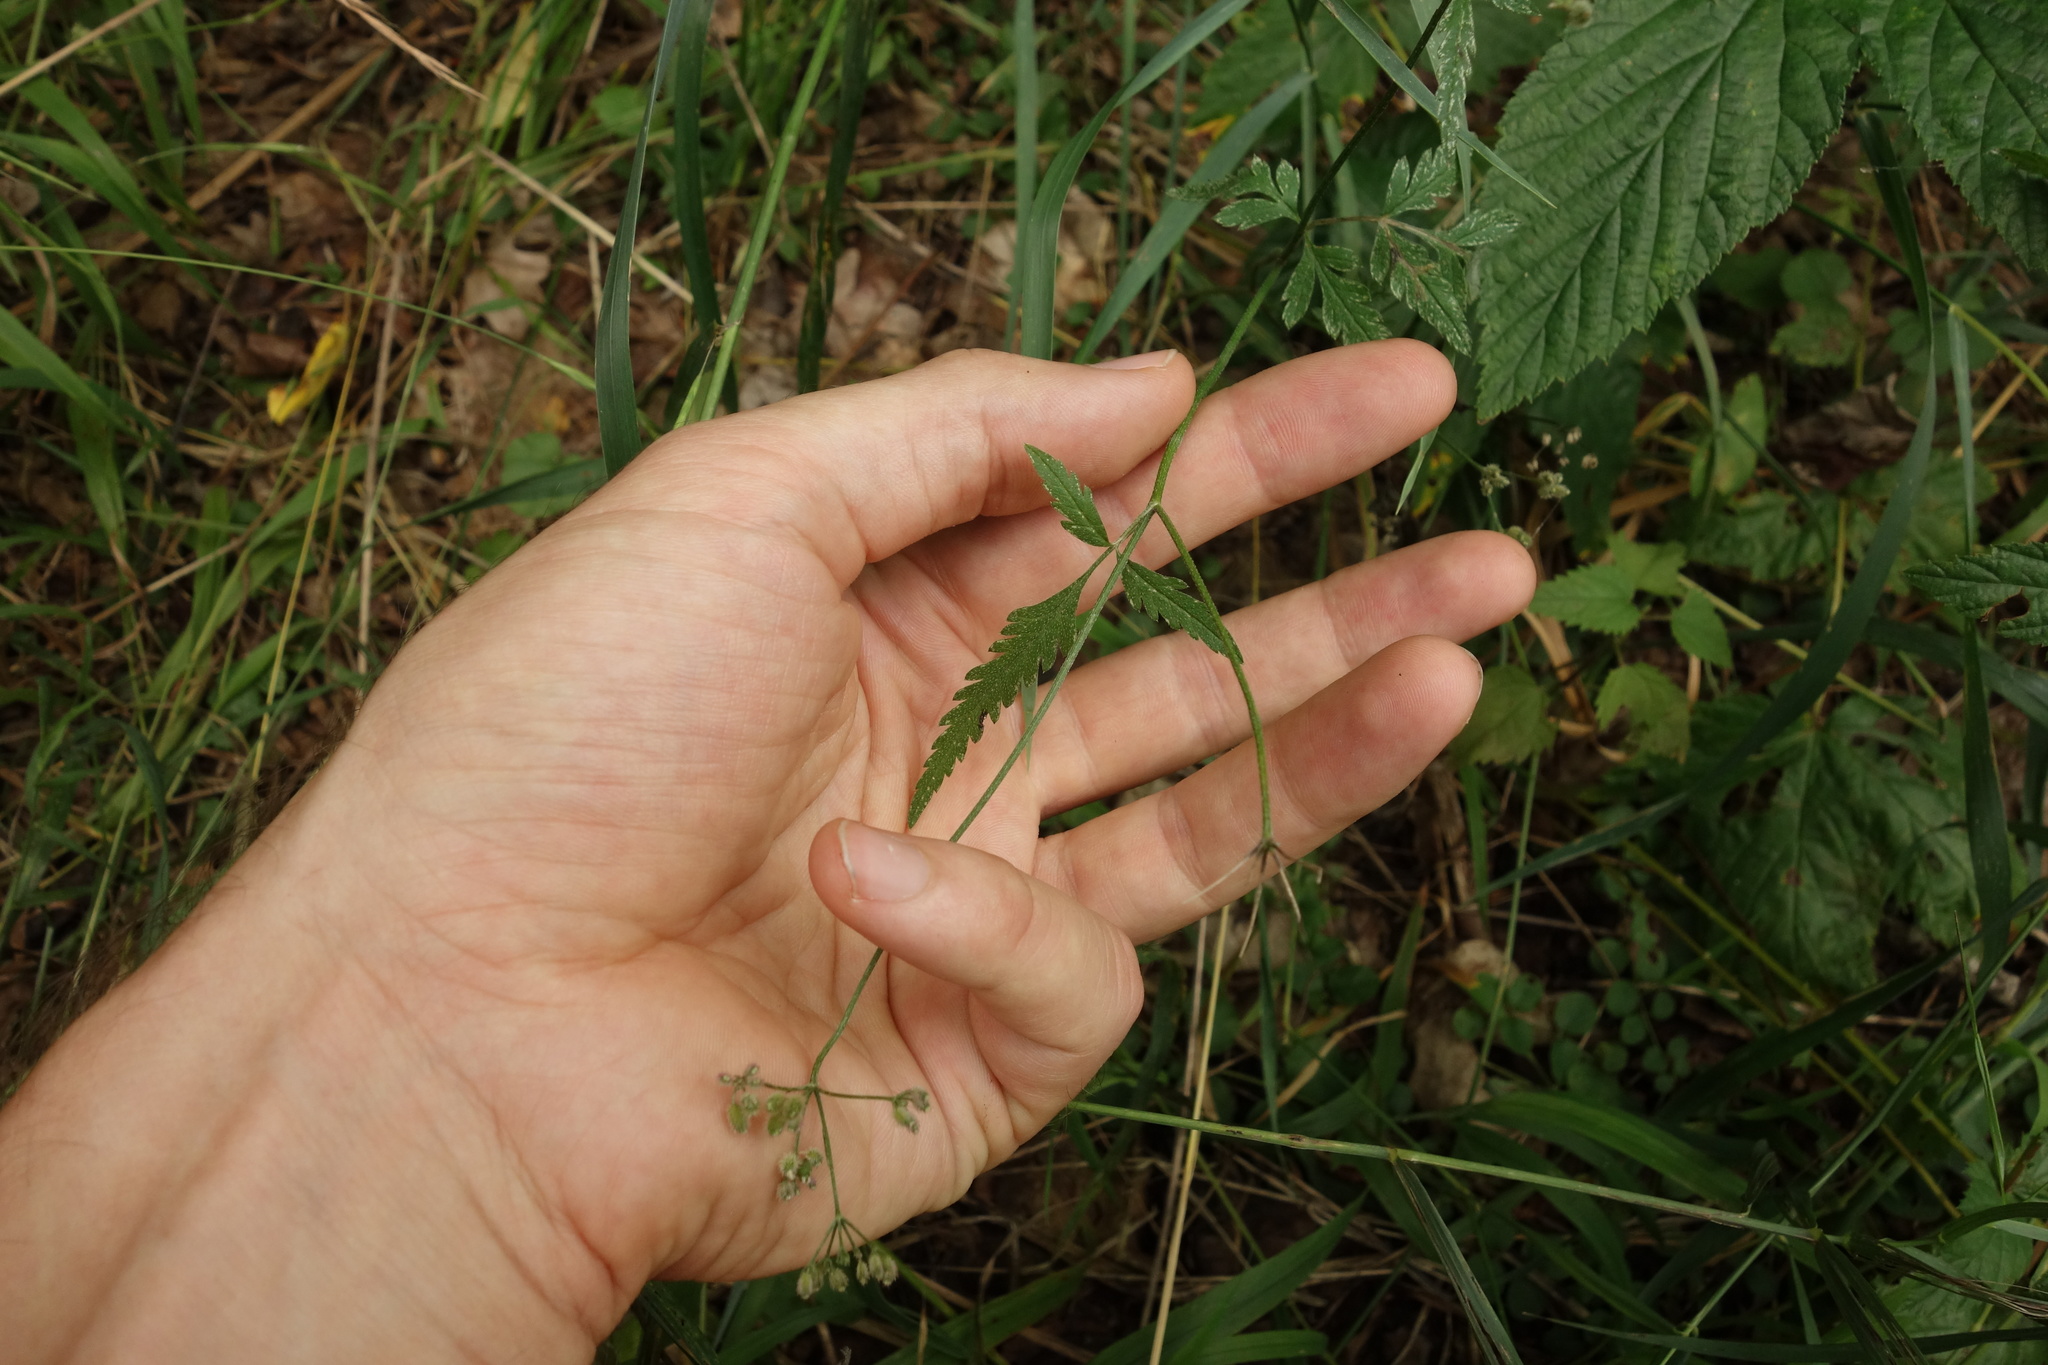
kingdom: Plantae
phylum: Tracheophyta
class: Magnoliopsida
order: Apiales
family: Apiaceae
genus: Torilis
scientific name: Torilis japonica
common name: Upright hedge-parsley
